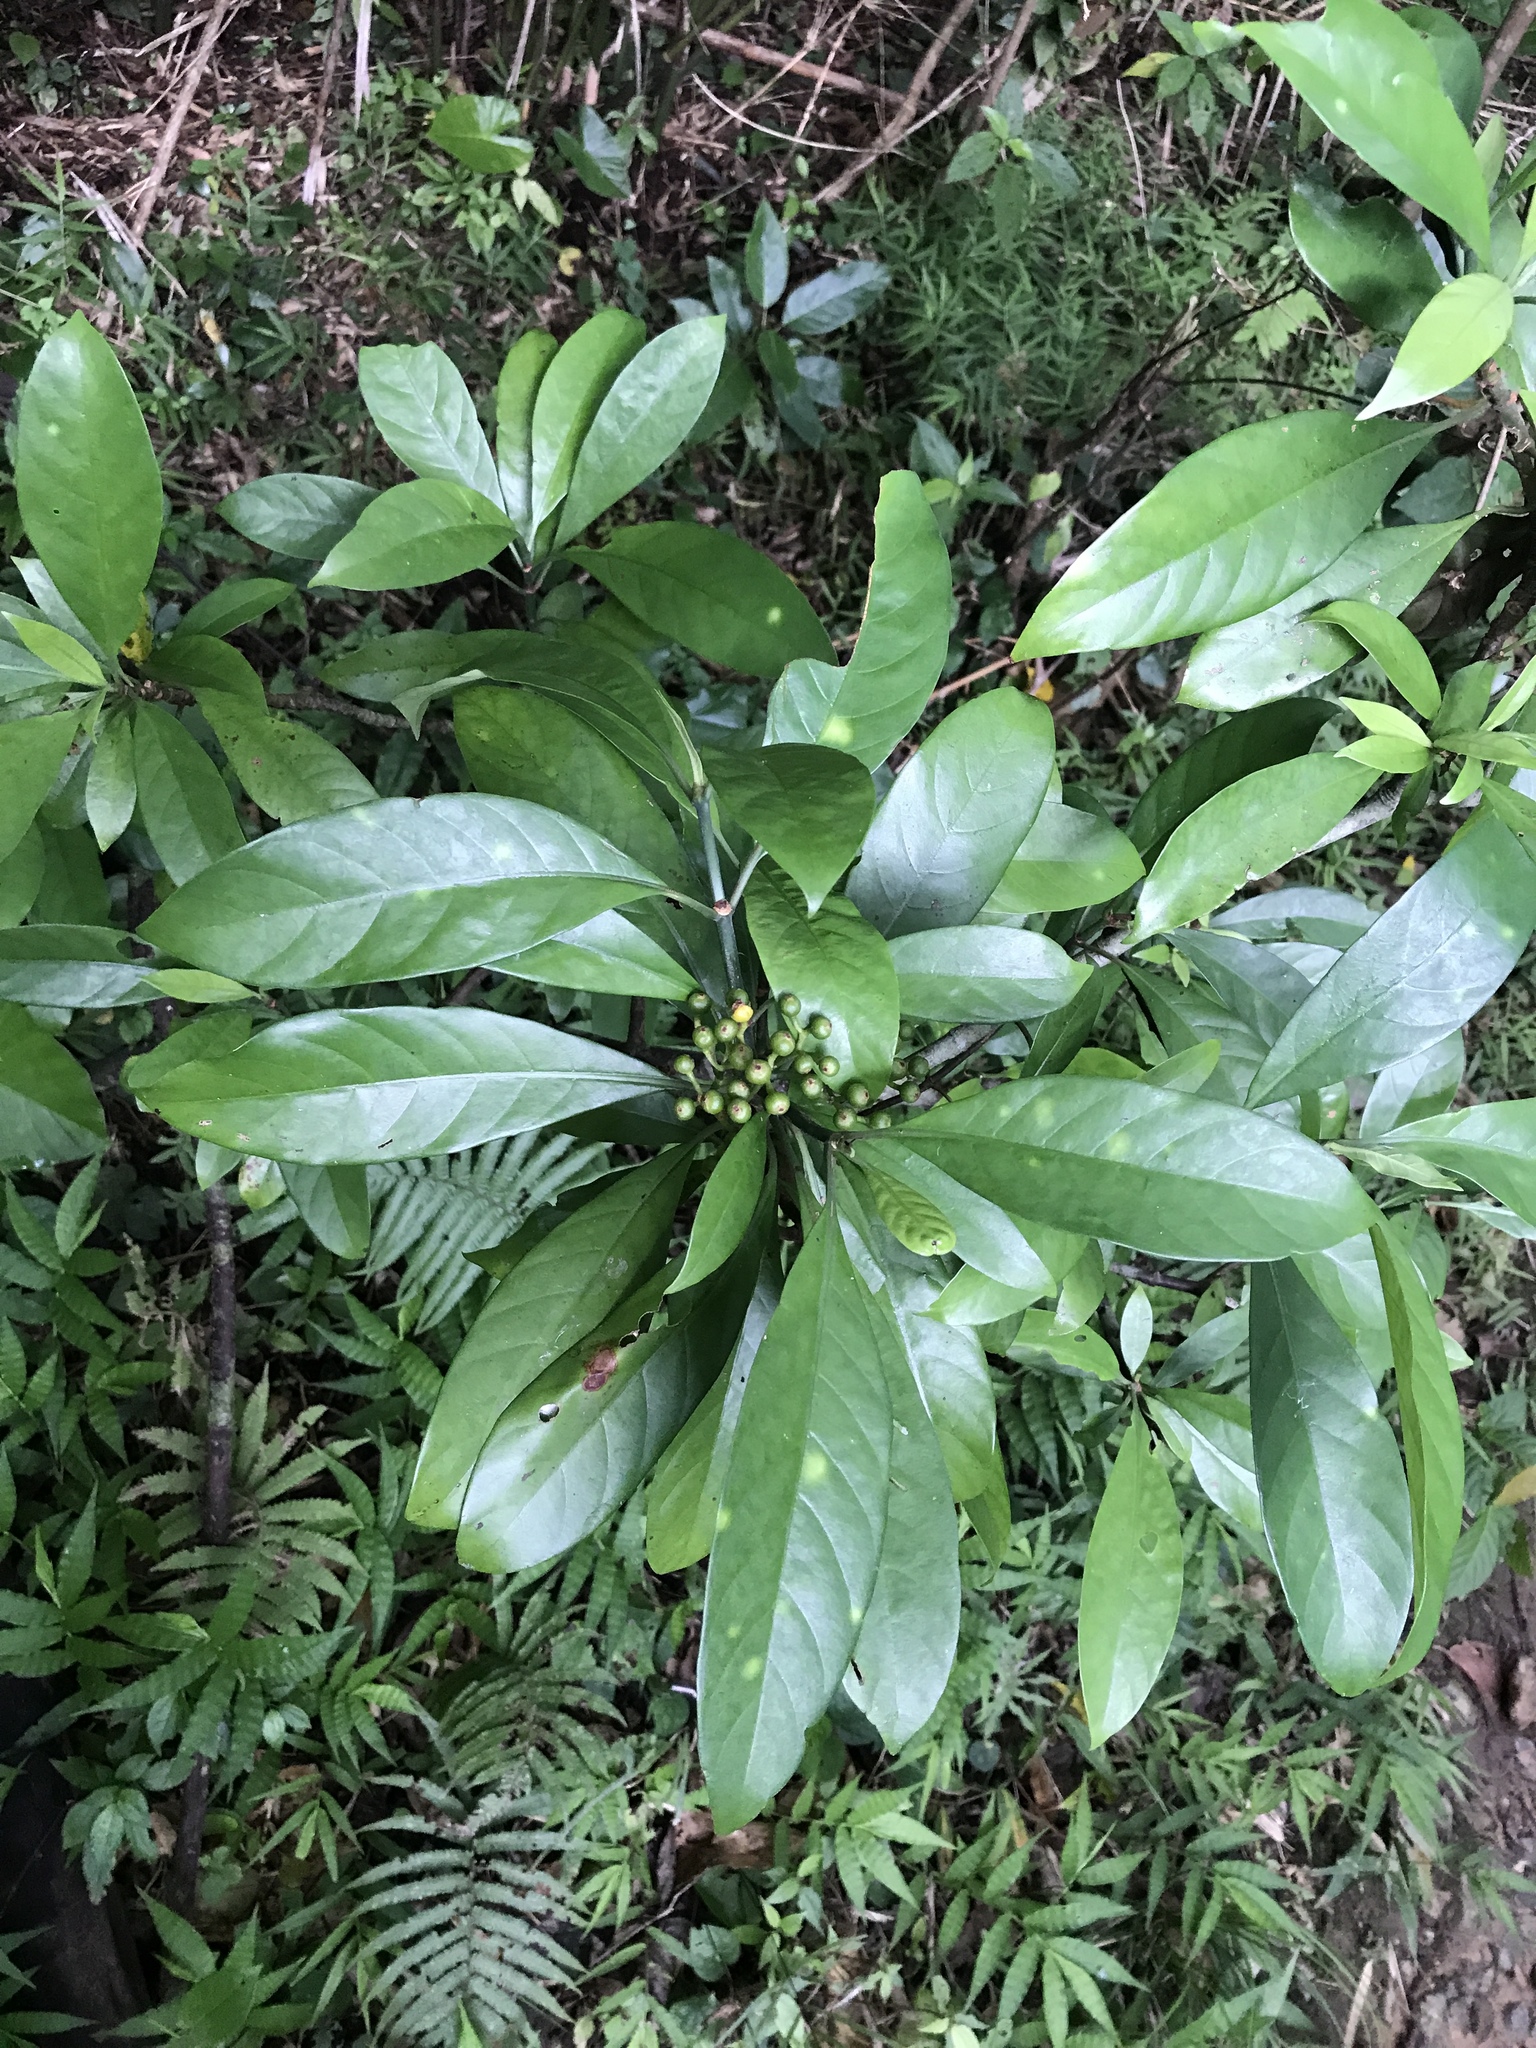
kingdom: Plantae
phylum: Tracheophyta
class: Magnoliopsida
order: Gentianales
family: Rubiaceae
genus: Psychotria
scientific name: Psychotria asiatica
